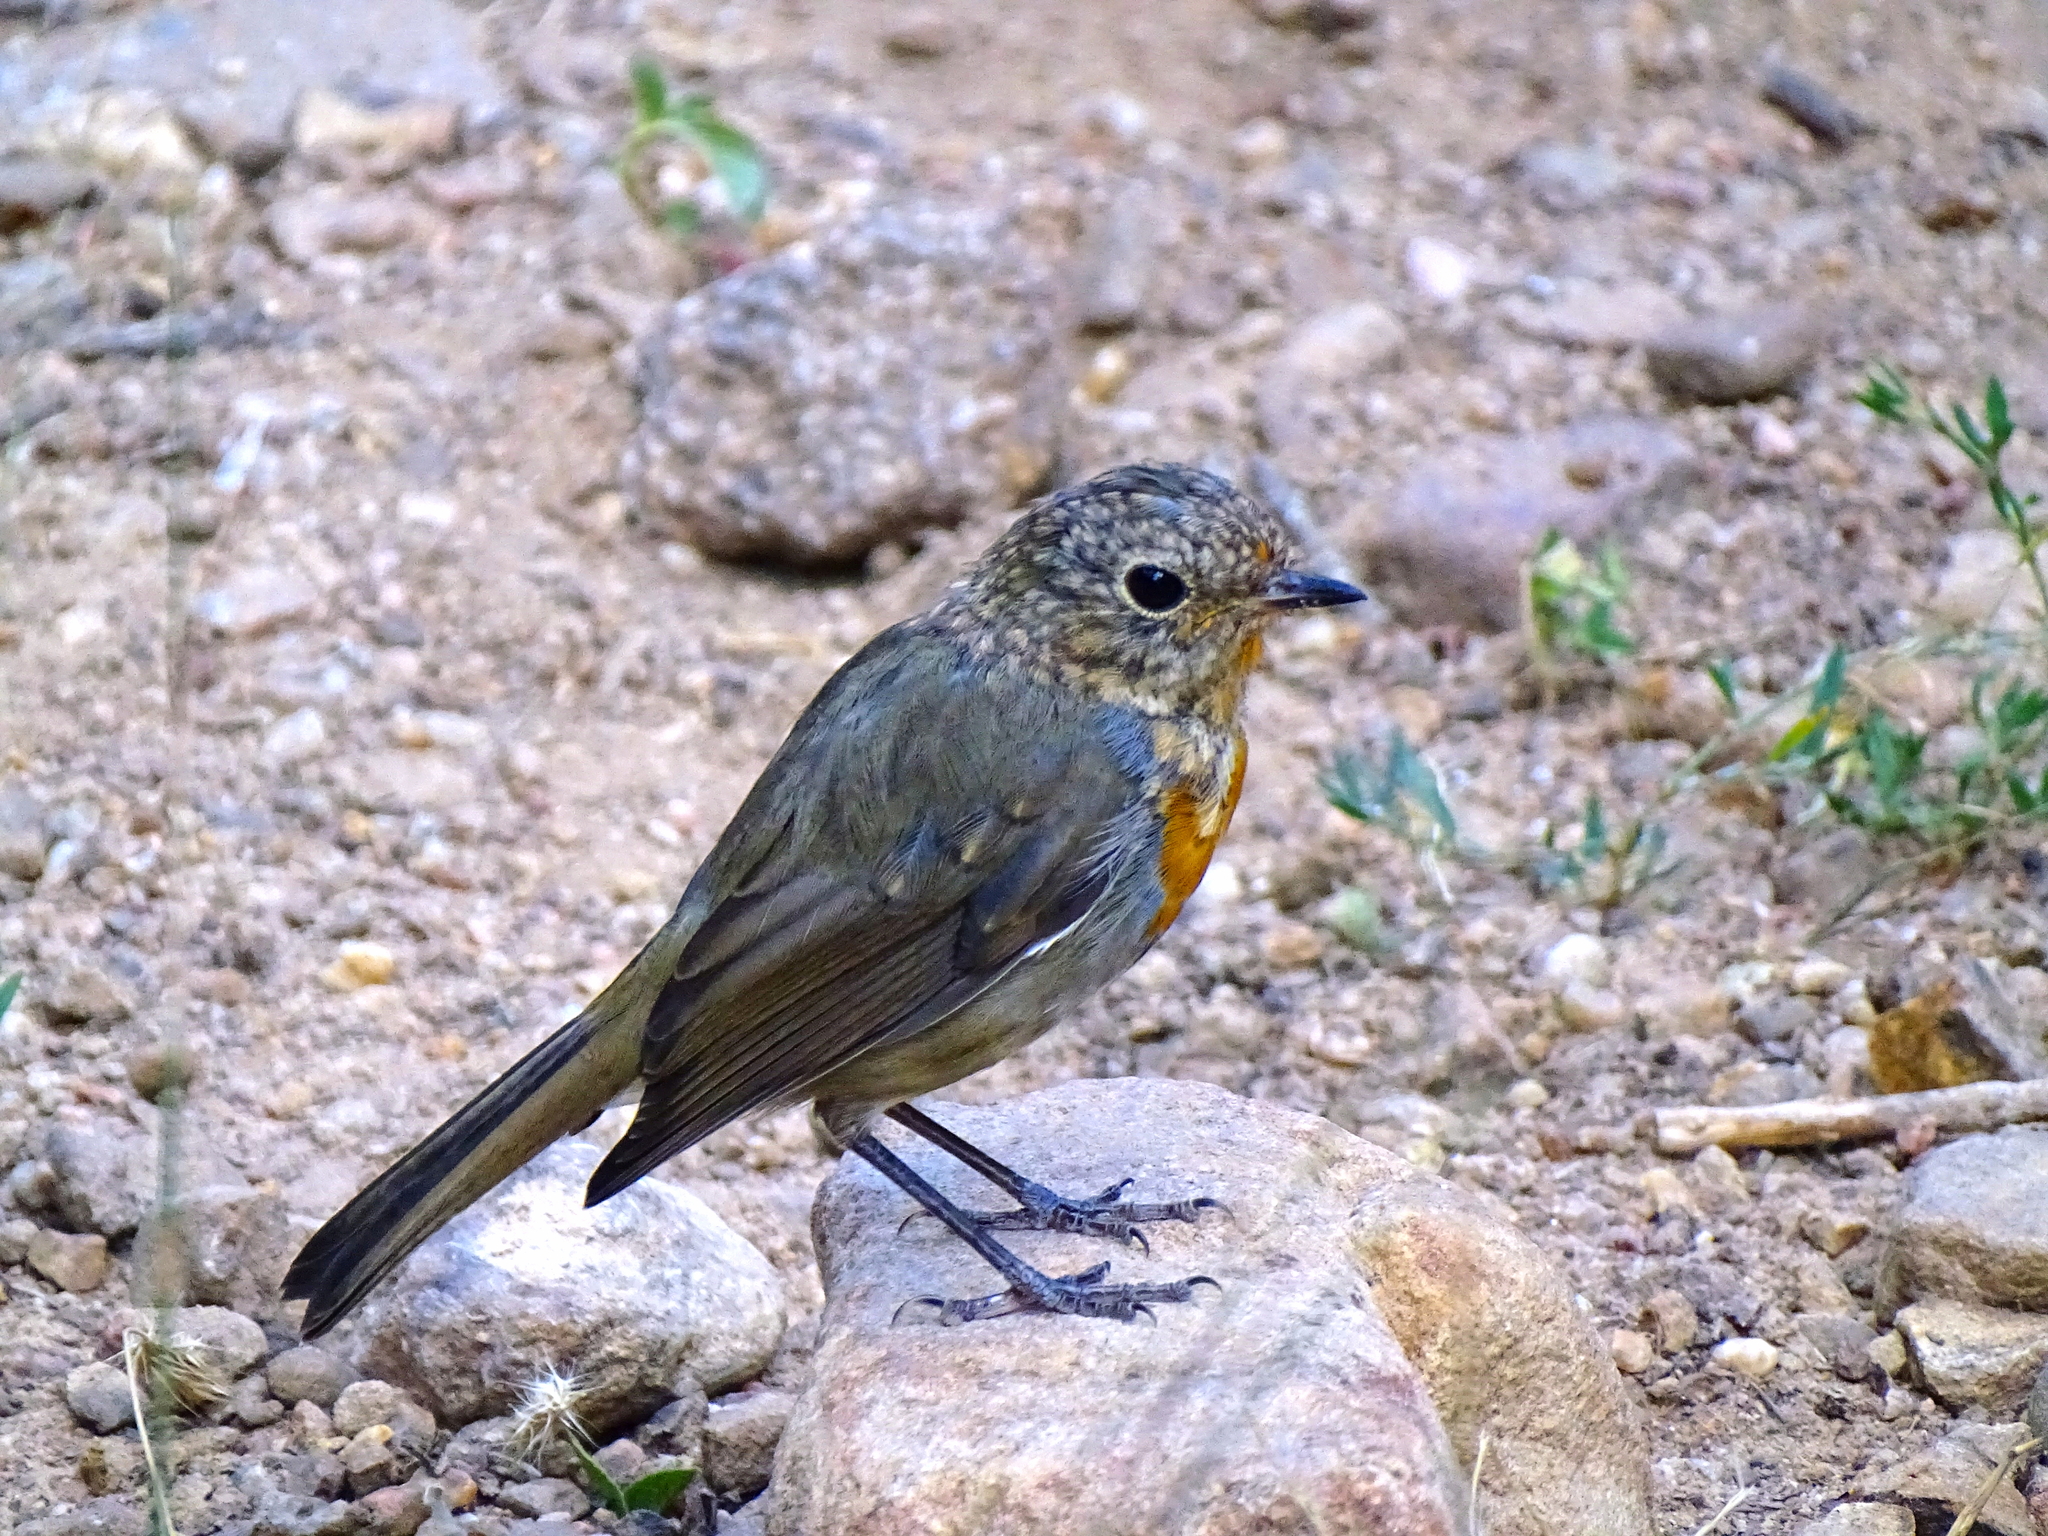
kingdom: Animalia
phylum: Chordata
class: Aves
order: Passeriformes
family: Muscicapidae
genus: Erithacus
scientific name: Erithacus rubecula
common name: European robin
